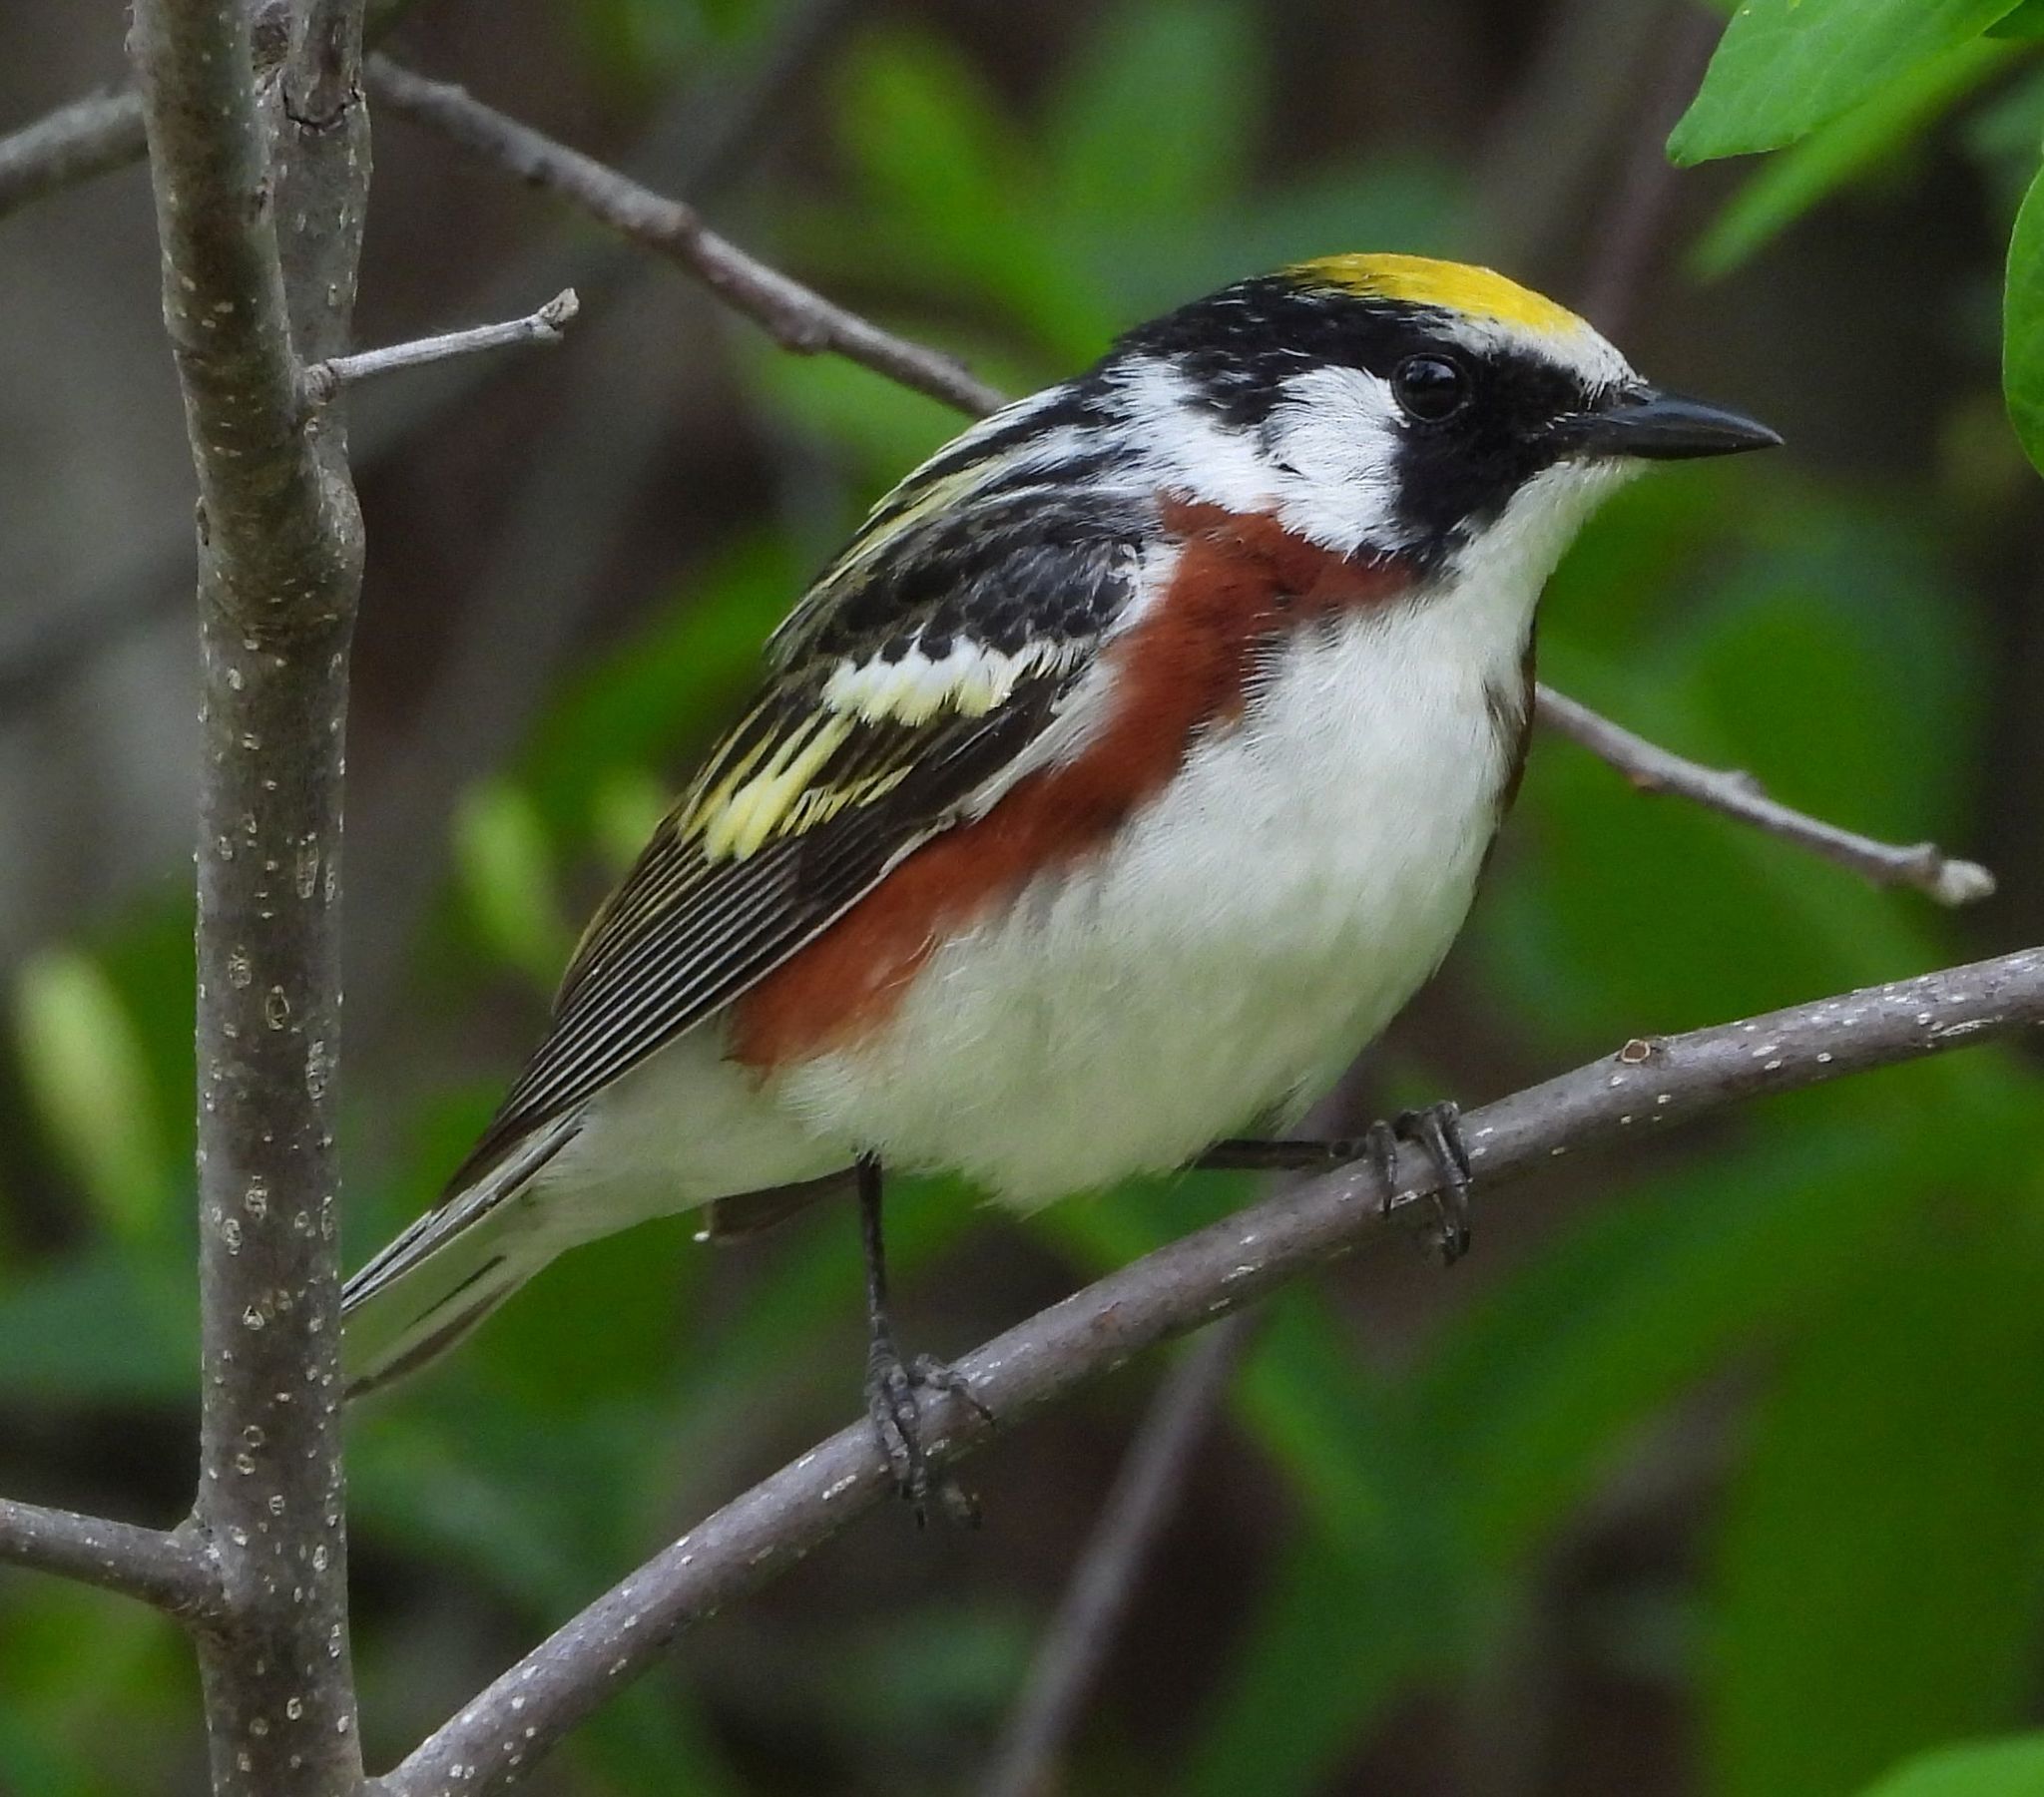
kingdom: Animalia
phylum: Chordata
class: Aves
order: Passeriformes
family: Parulidae
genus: Setophaga
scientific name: Setophaga pensylvanica
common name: Chestnut-sided warbler
